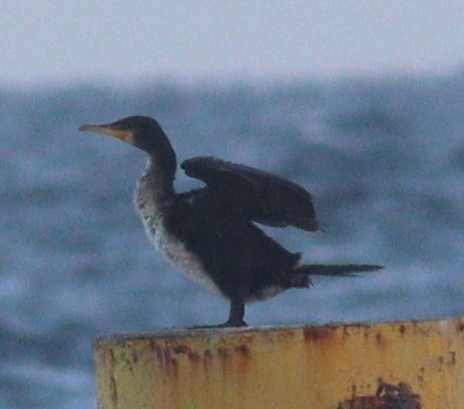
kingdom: Animalia
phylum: Chordata
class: Aves
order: Suliformes
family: Phalacrocoracidae
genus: Phalacrocorax
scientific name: Phalacrocorax carbo
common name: Great cormorant
